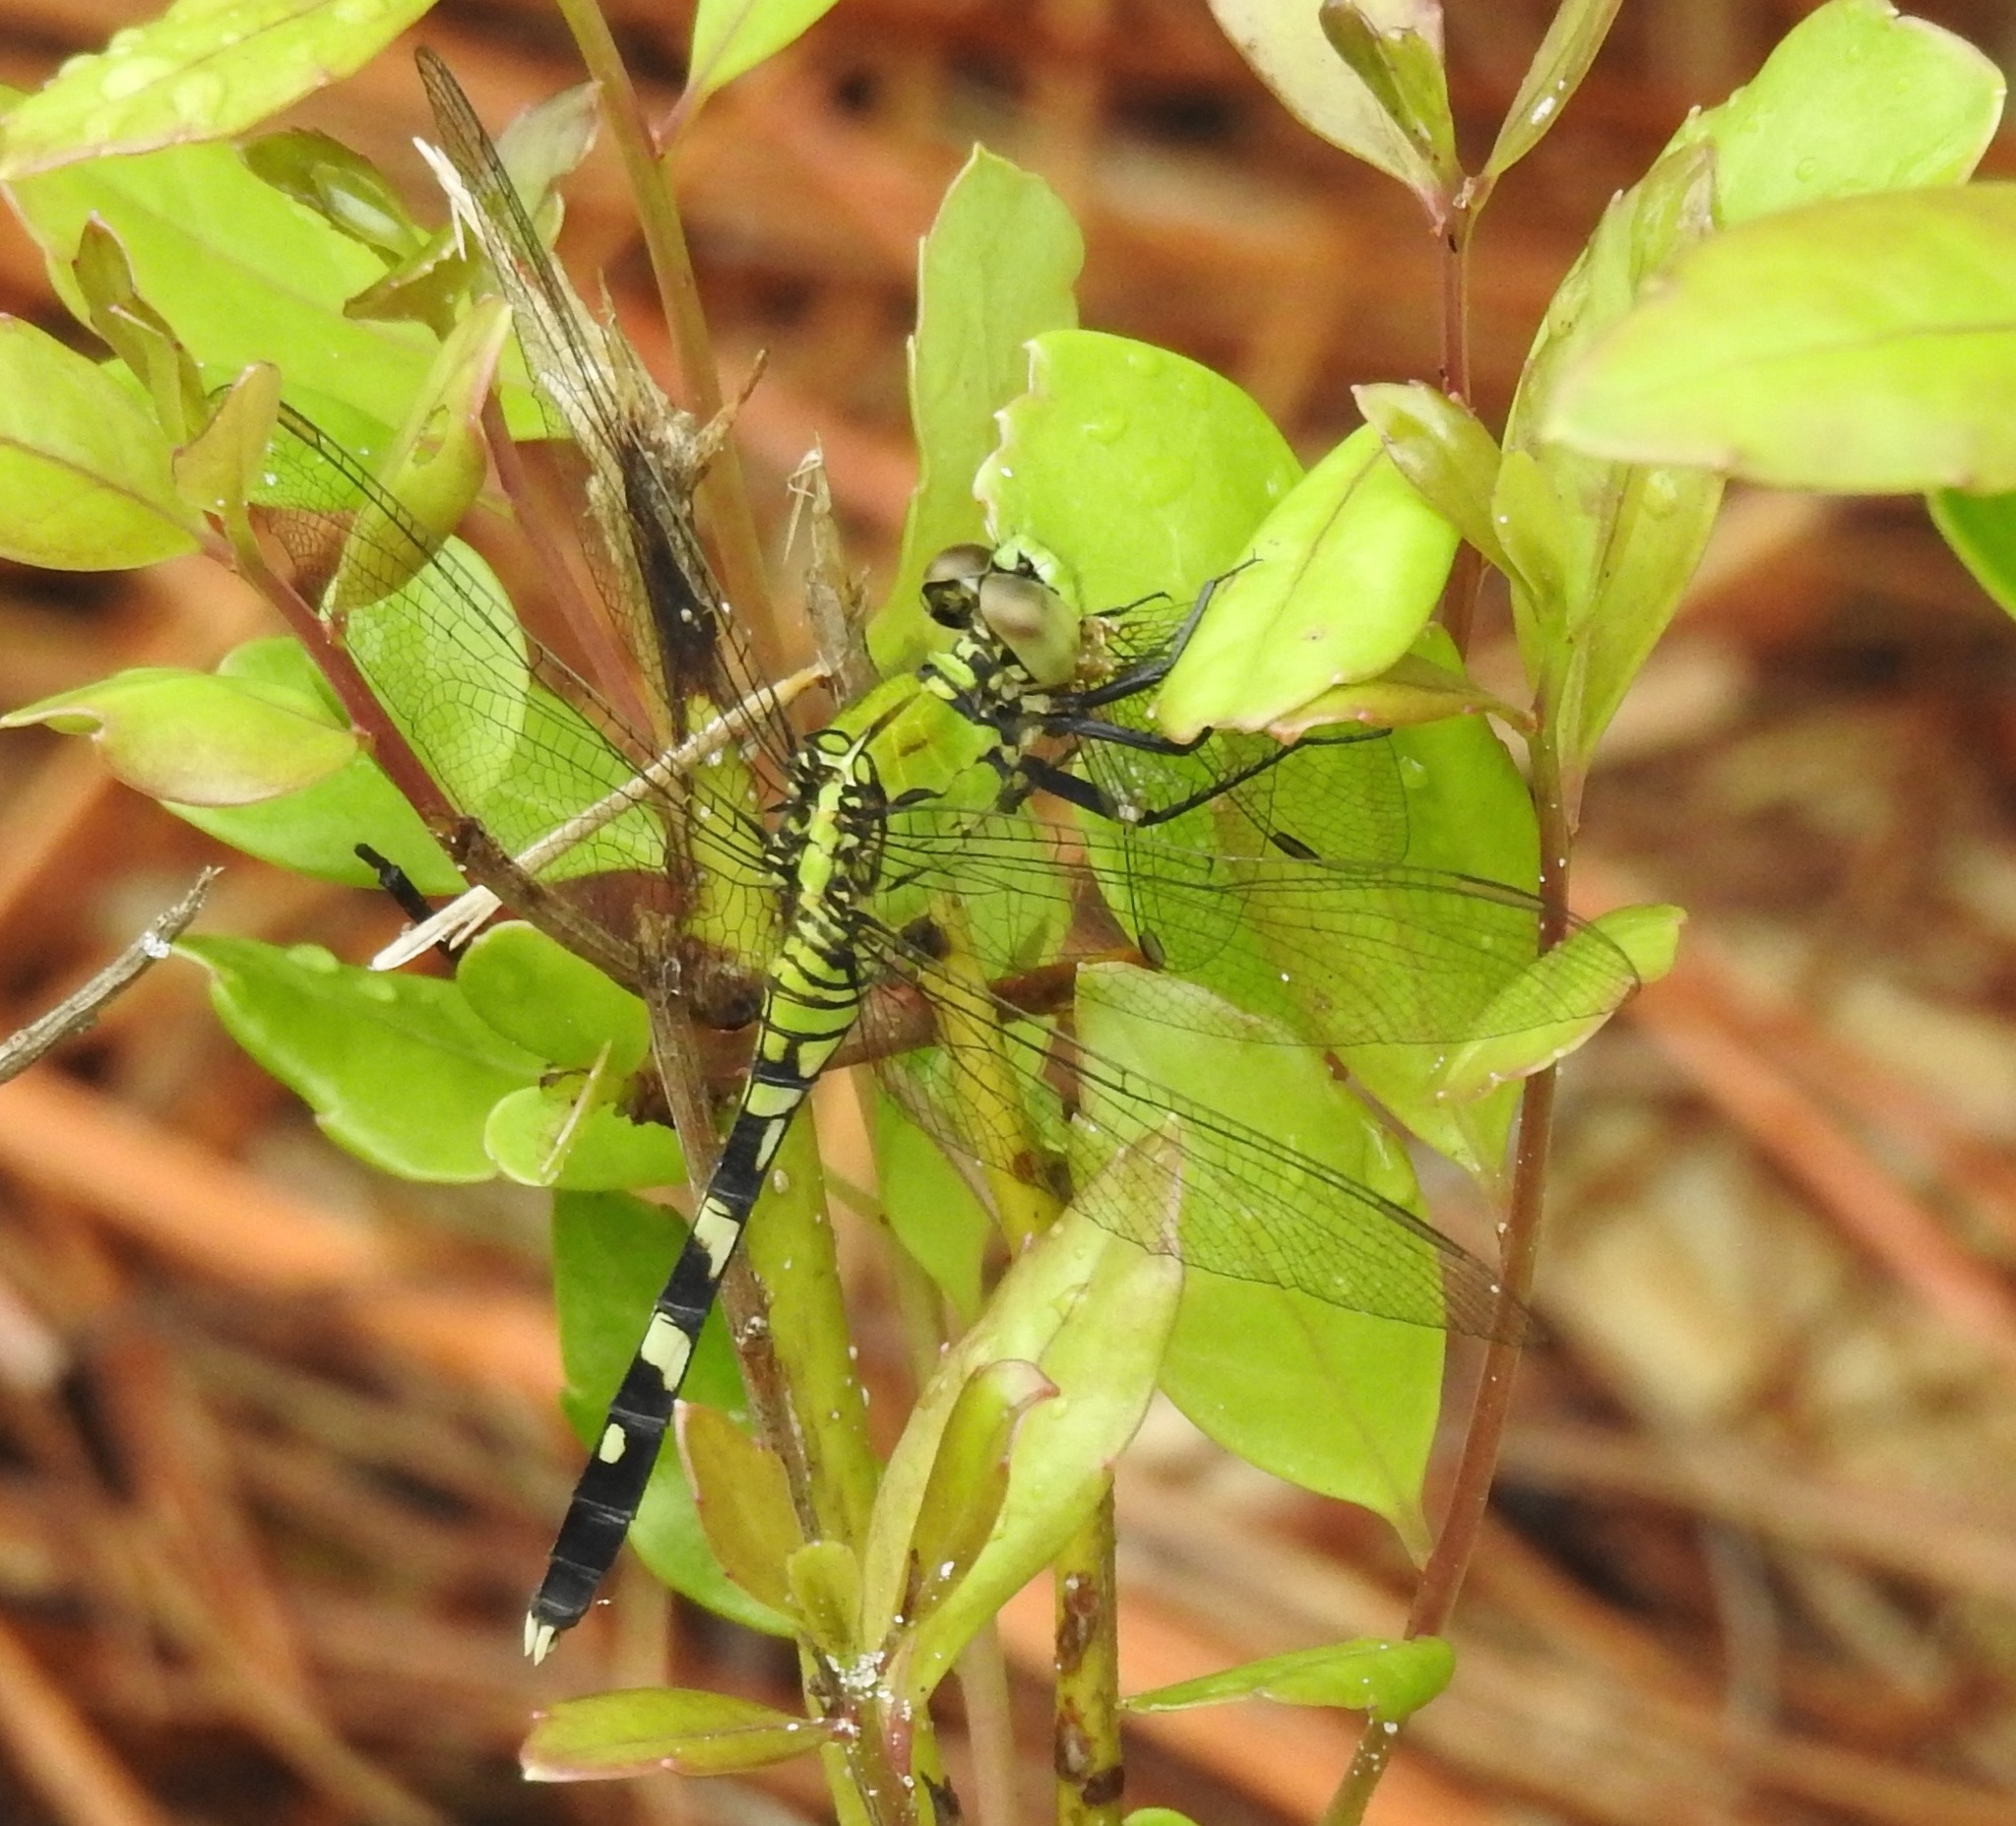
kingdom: Animalia
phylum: Arthropoda
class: Insecta
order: Odonata
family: Libellulidae
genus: Erythemis
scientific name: Erythemis simplicicollis
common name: Eastern pondhawk
